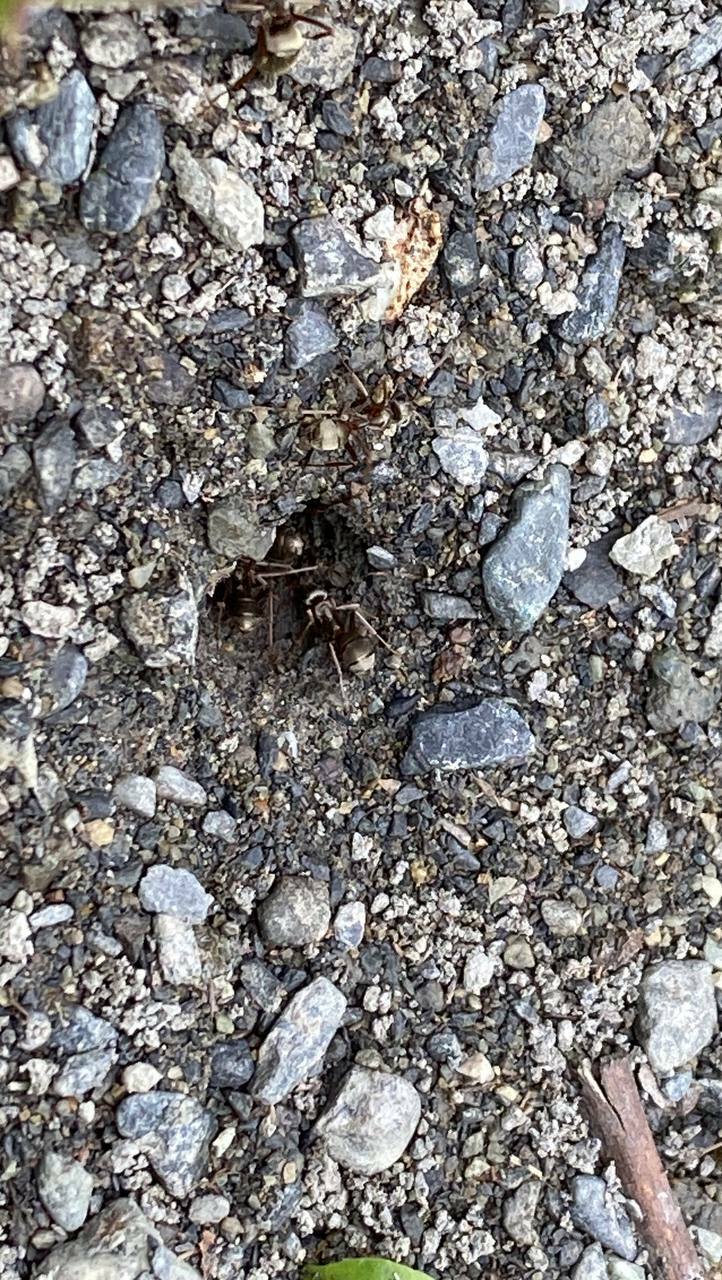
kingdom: Animalia
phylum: Arthropoda
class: Insecta
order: Hymenoptera
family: Formicidae
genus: Formica
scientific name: Formica cinerea
